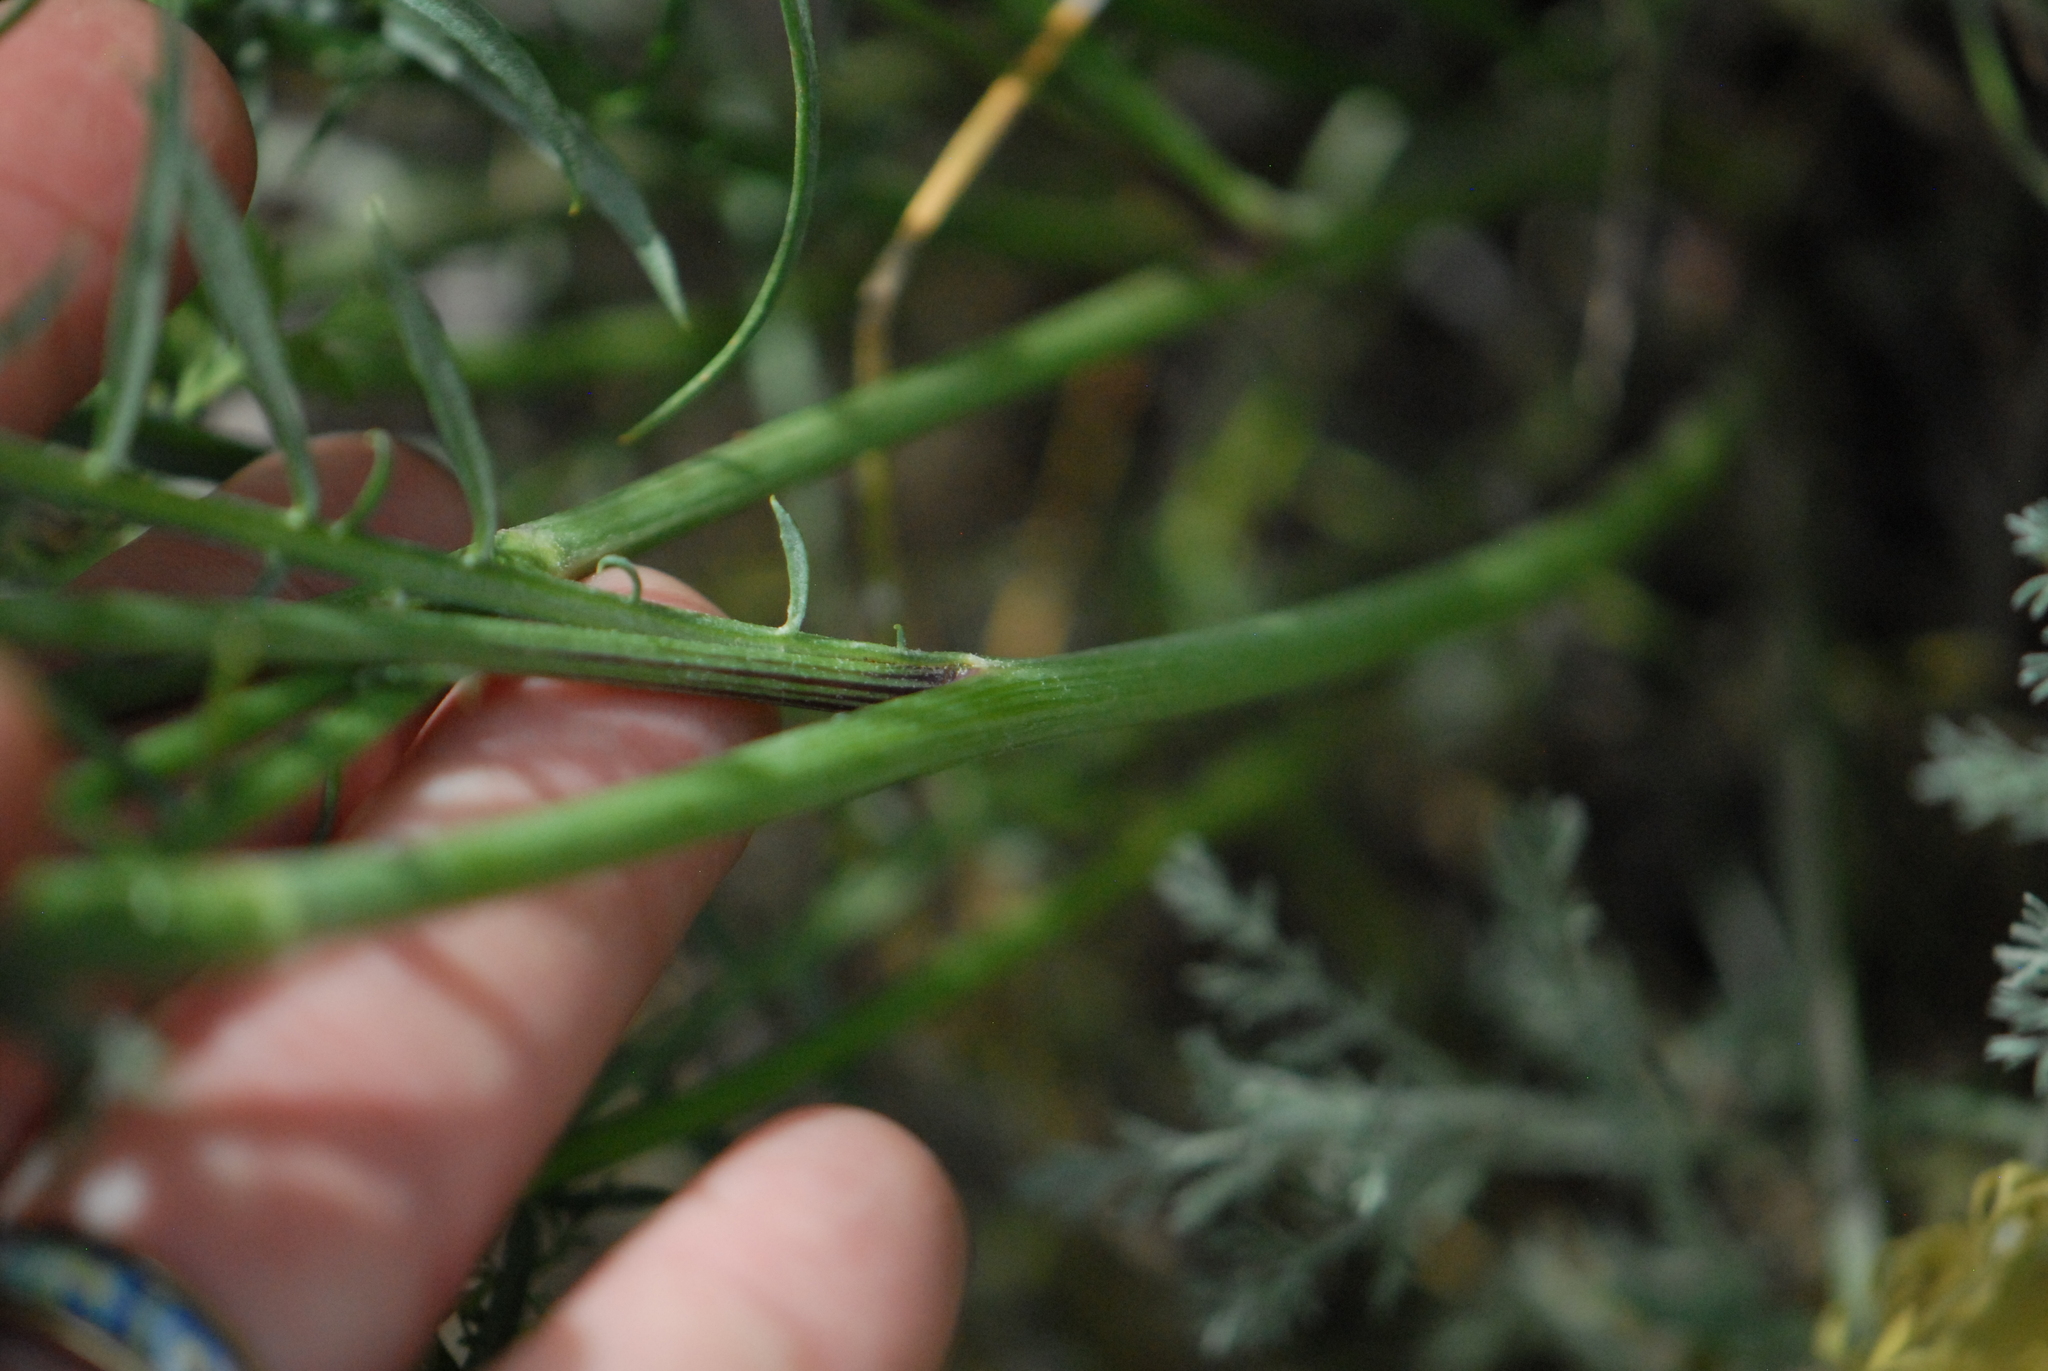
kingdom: Plantae
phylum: Tracheophyta
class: Magnoliopsida
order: Asterales
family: Asteraceae
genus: Chondrilla
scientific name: Chondrilla juncea
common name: Skeleton weed
